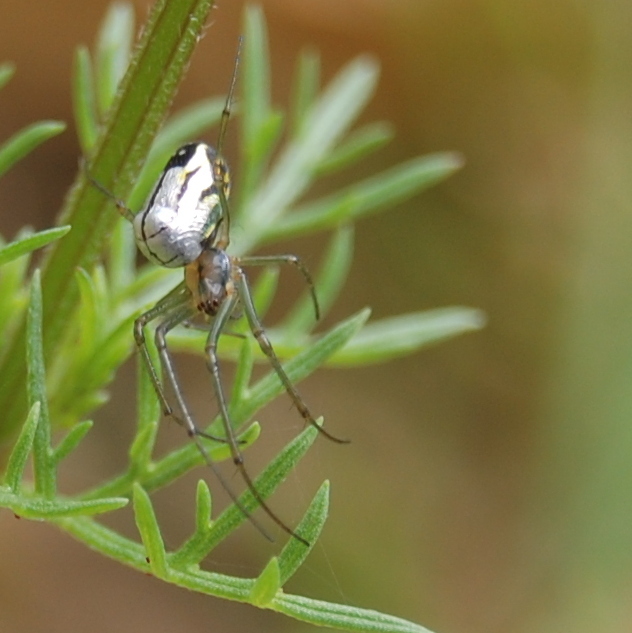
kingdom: Animalia
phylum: Arthropoda
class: Arachnida
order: Araneae
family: Tetragnathidae
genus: Leucauge
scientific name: Leucauge volupis
